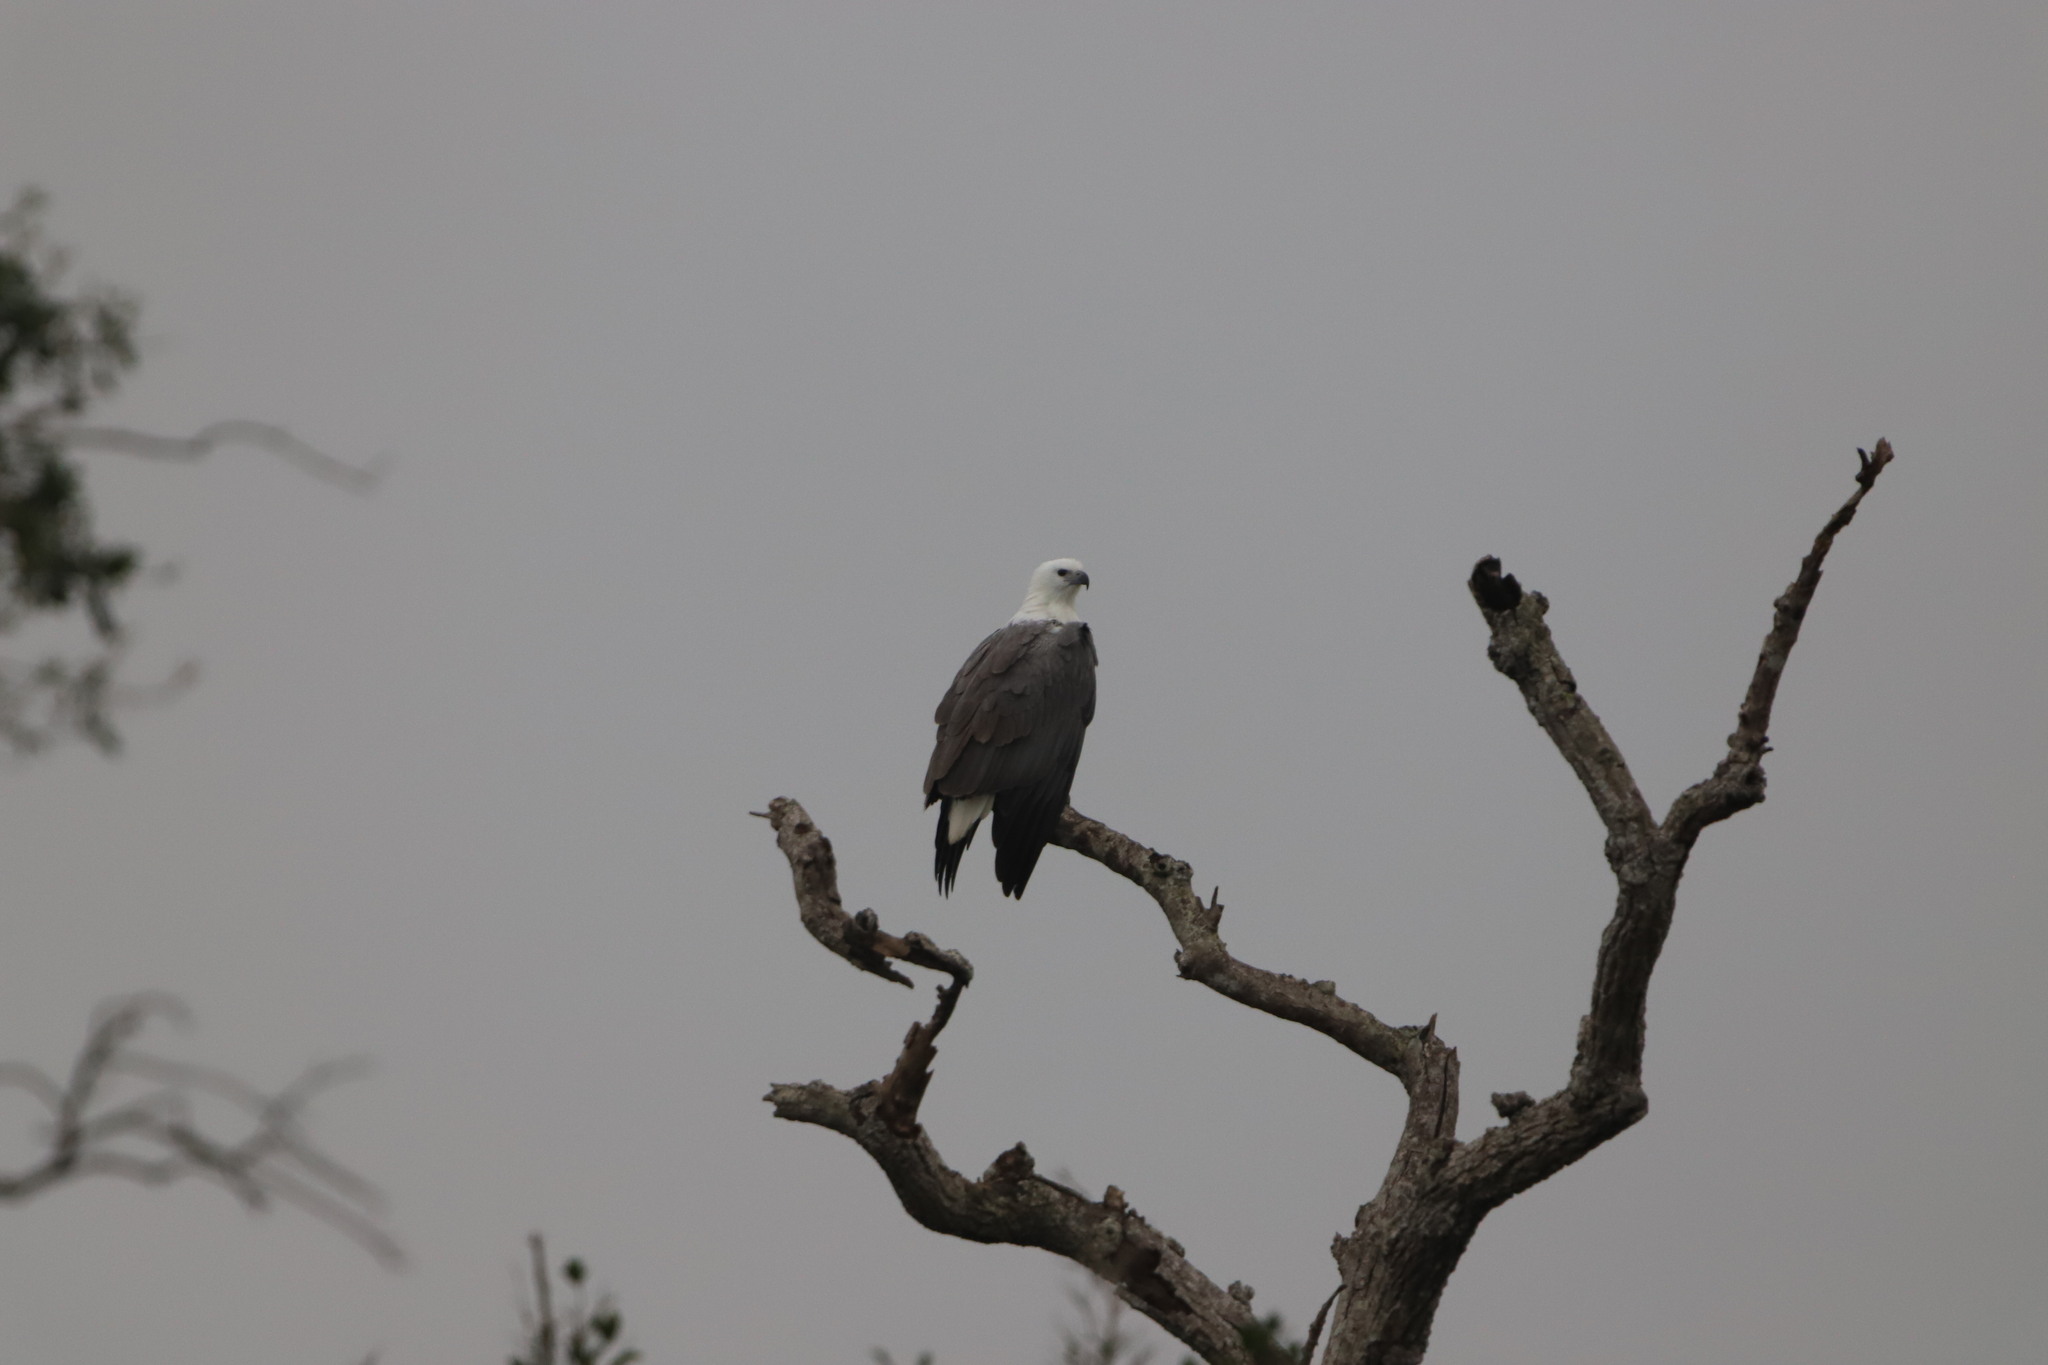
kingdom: Animalia
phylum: Chordata
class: Aves
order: Accipitriformes
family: Accipitridae
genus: Haliaeetus
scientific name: Haliaeetus leucogaster
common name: White-bellied sea eagle
